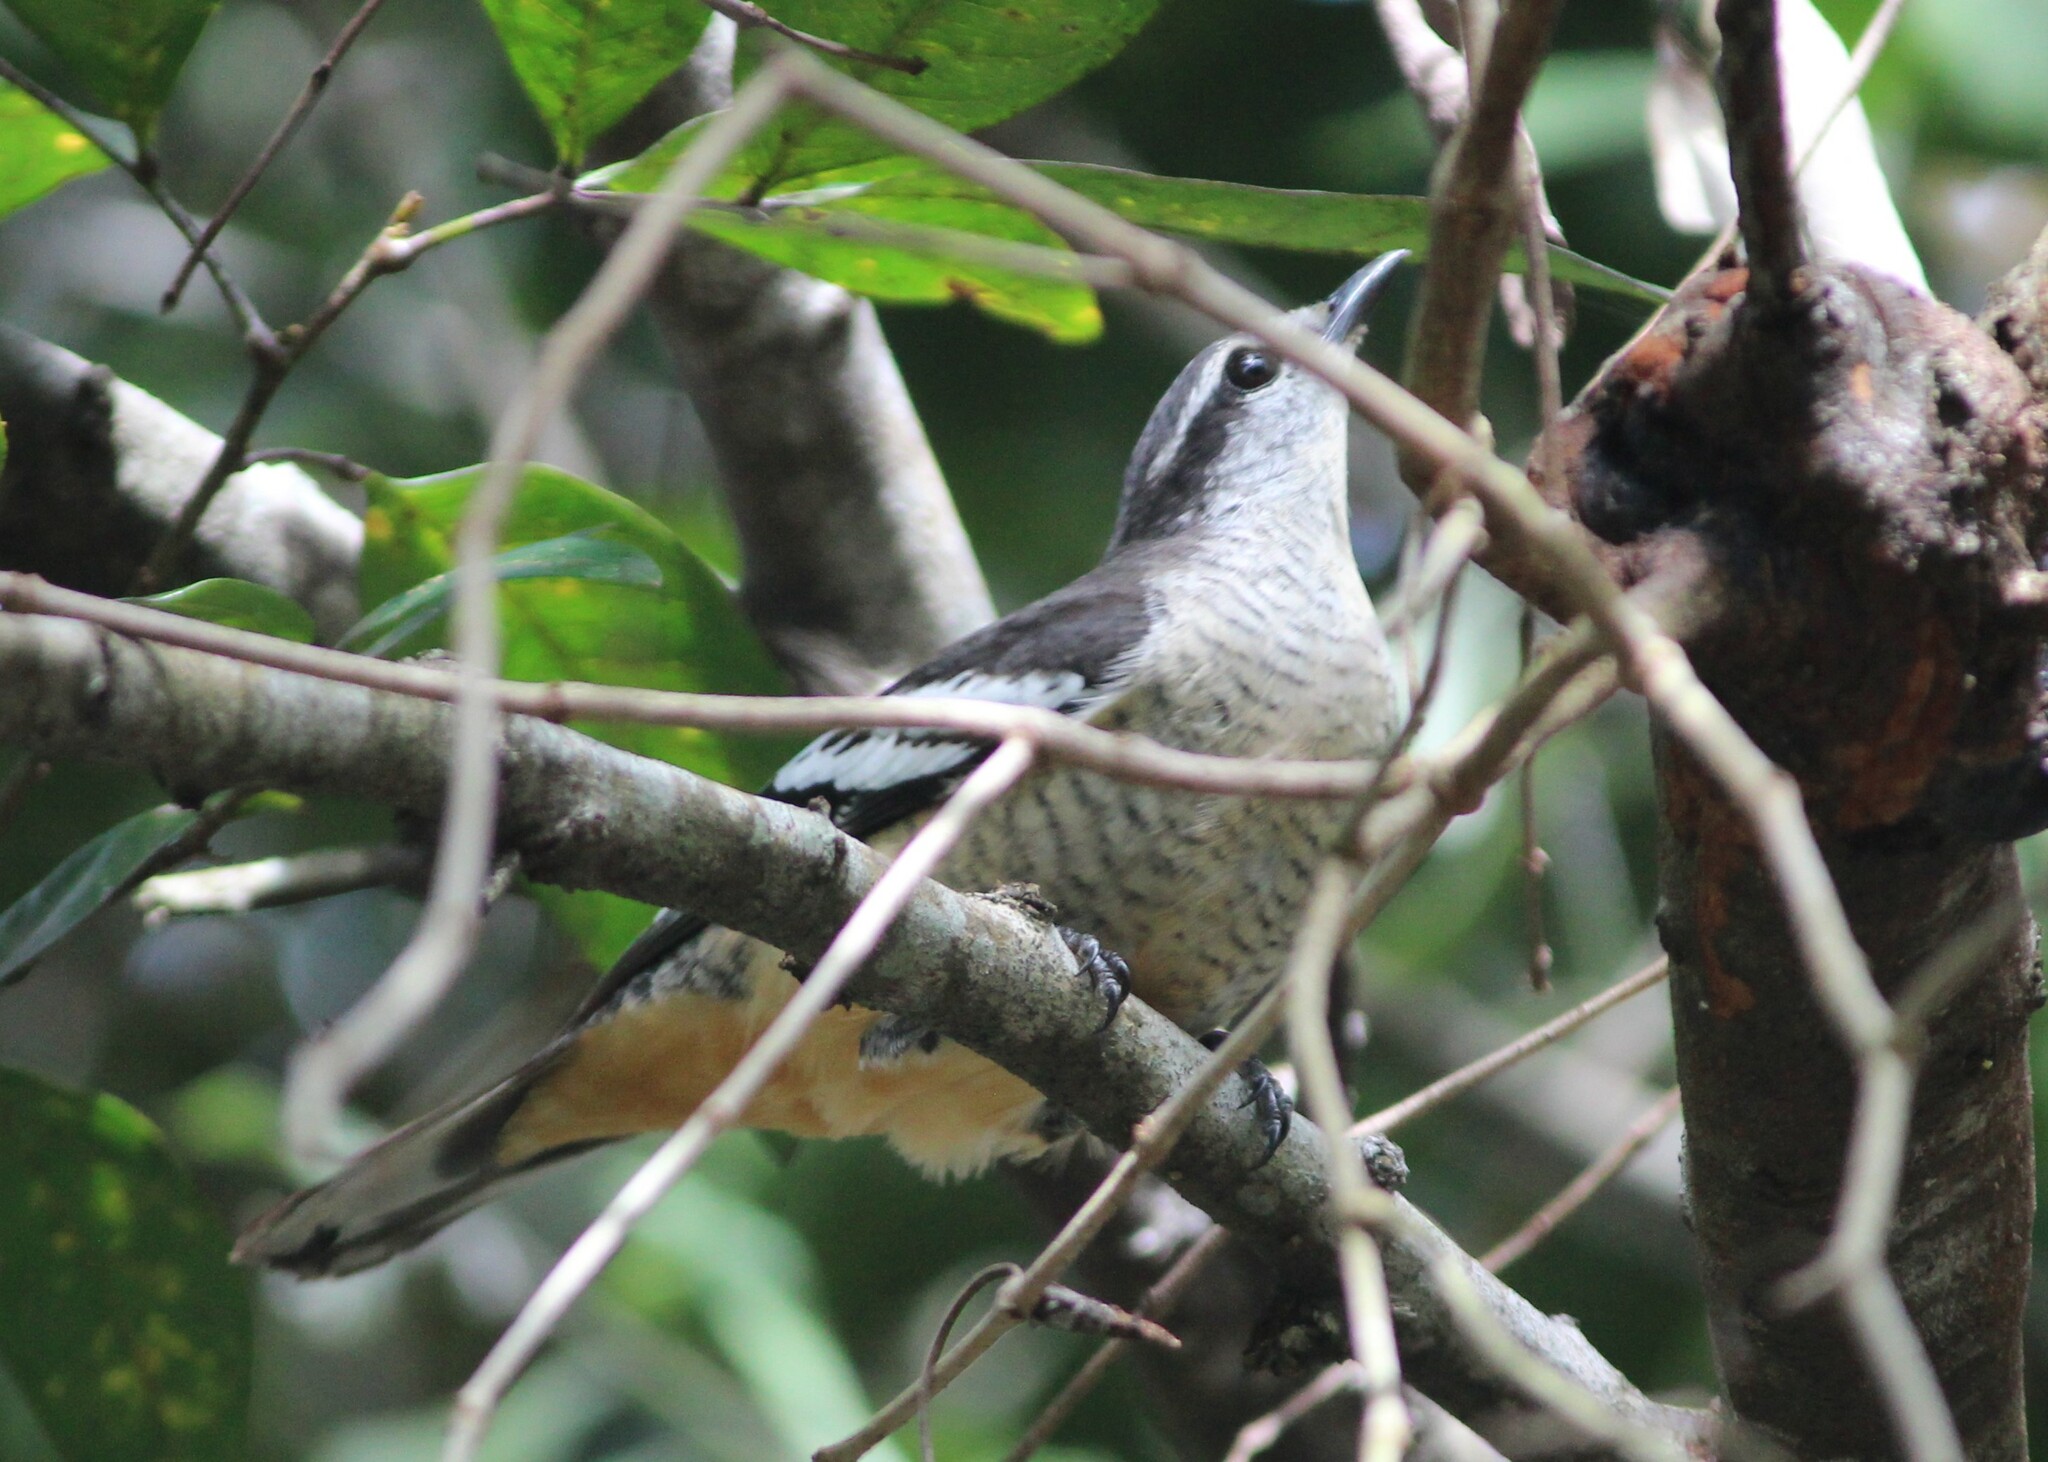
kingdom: Animalia
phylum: Chordata
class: Aves
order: Passeriformes
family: Campephagidae
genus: Lalage
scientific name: Lalage leucomela
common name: Varied triller
